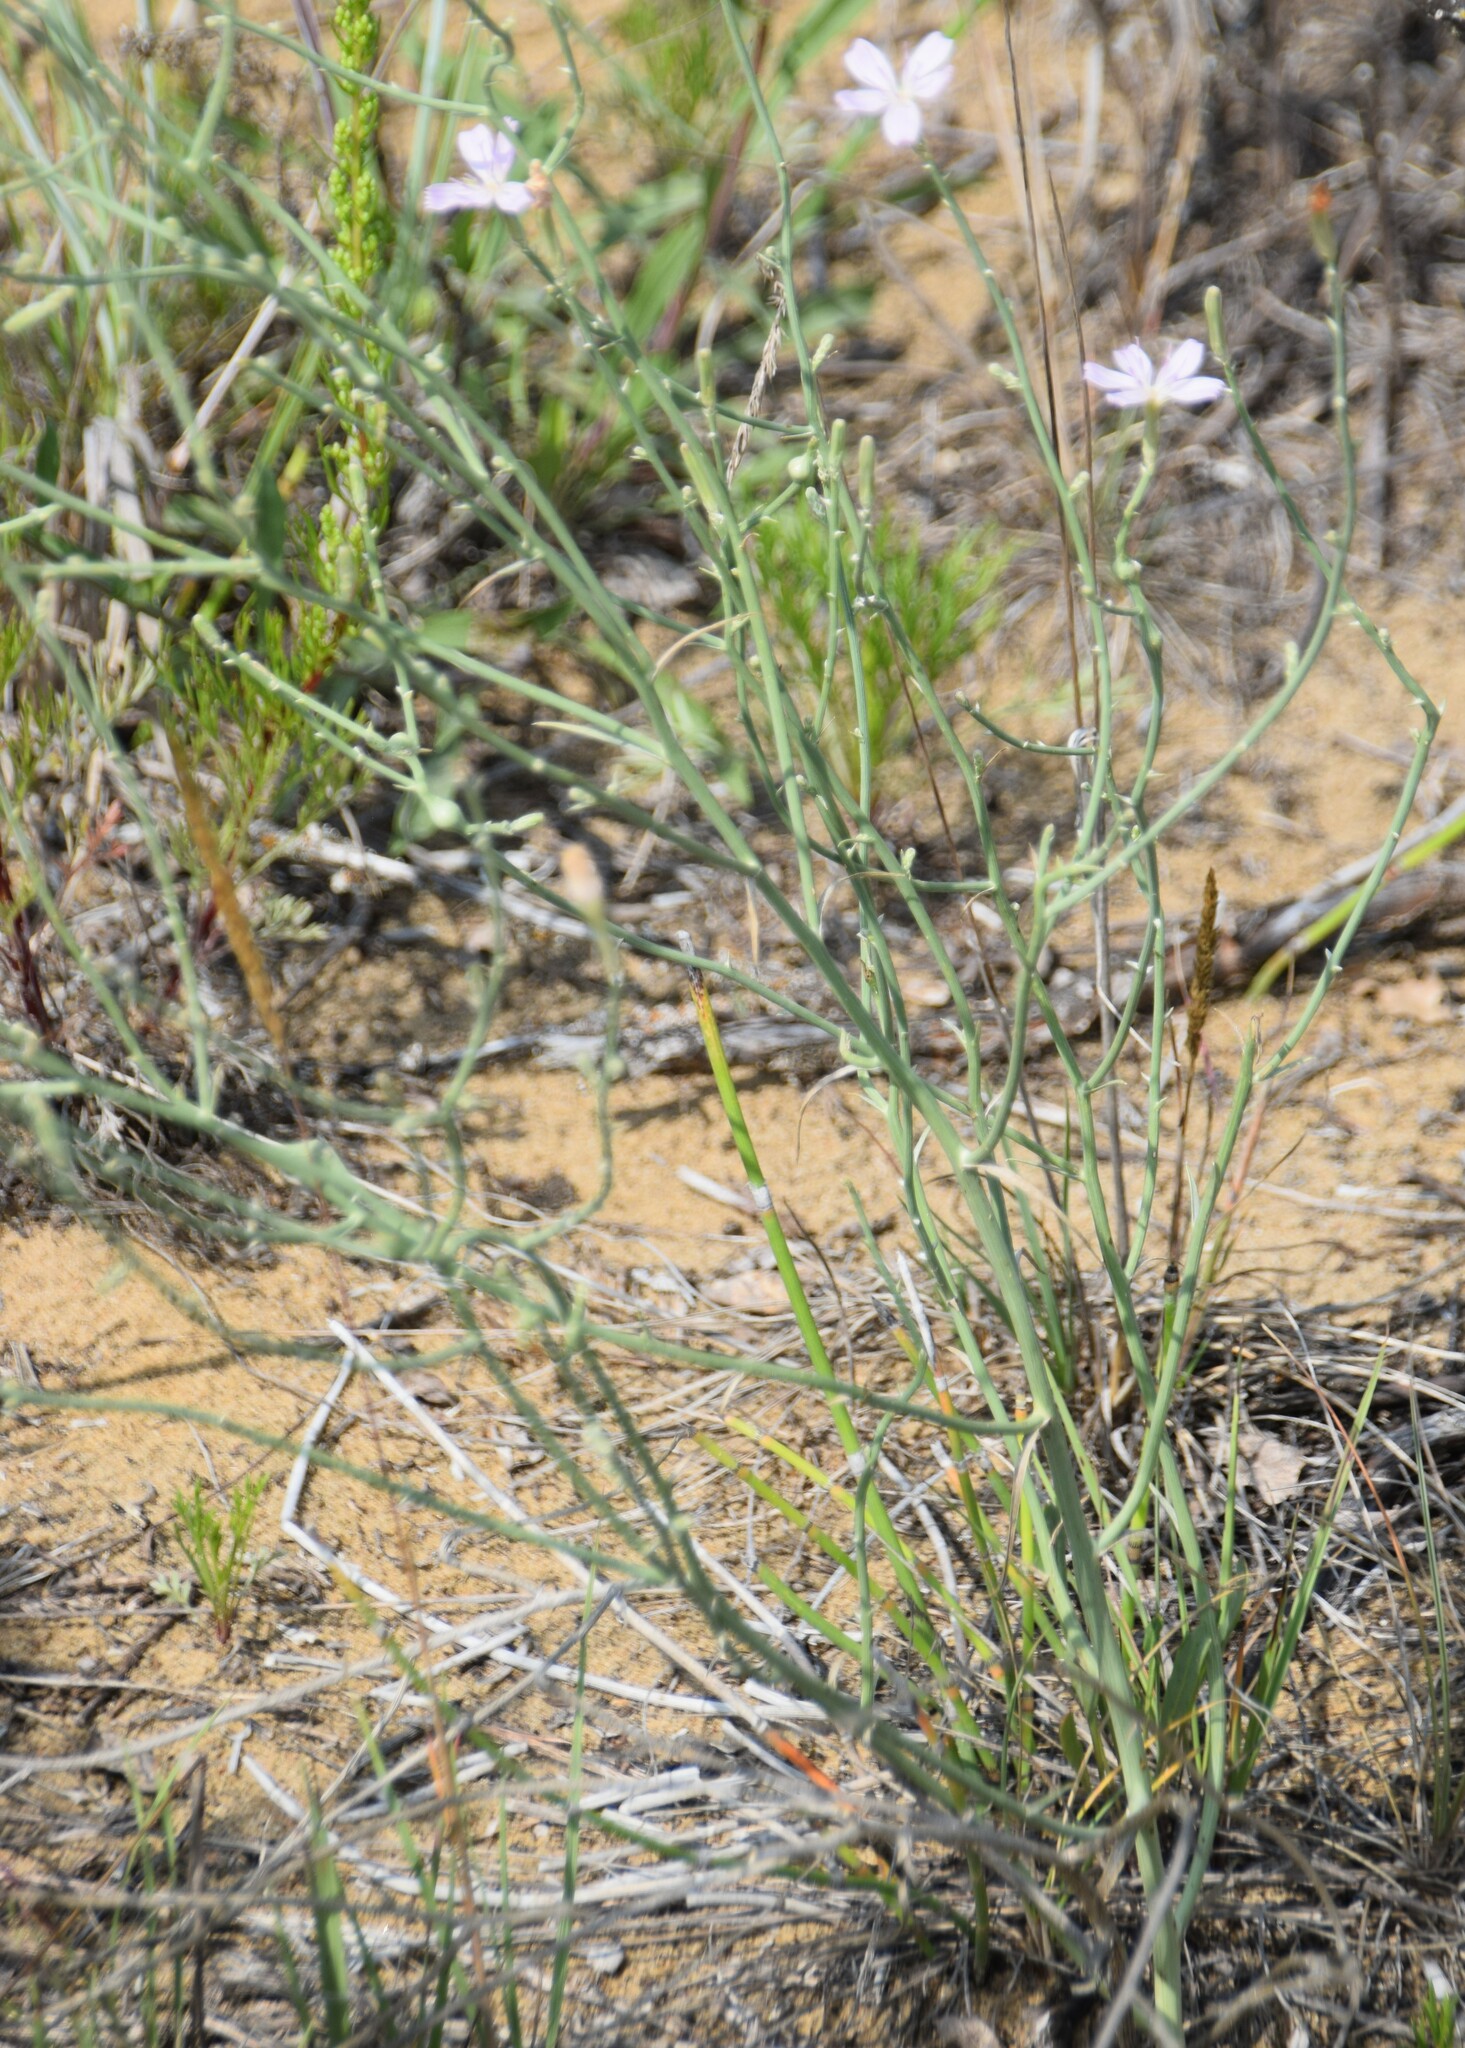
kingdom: Plantae
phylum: Tracheophyta
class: Magnoliopsida
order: Asterales
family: Asteraceae
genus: Lygodesmia
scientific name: Lygodesmia juncea
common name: Common skeletonweed
